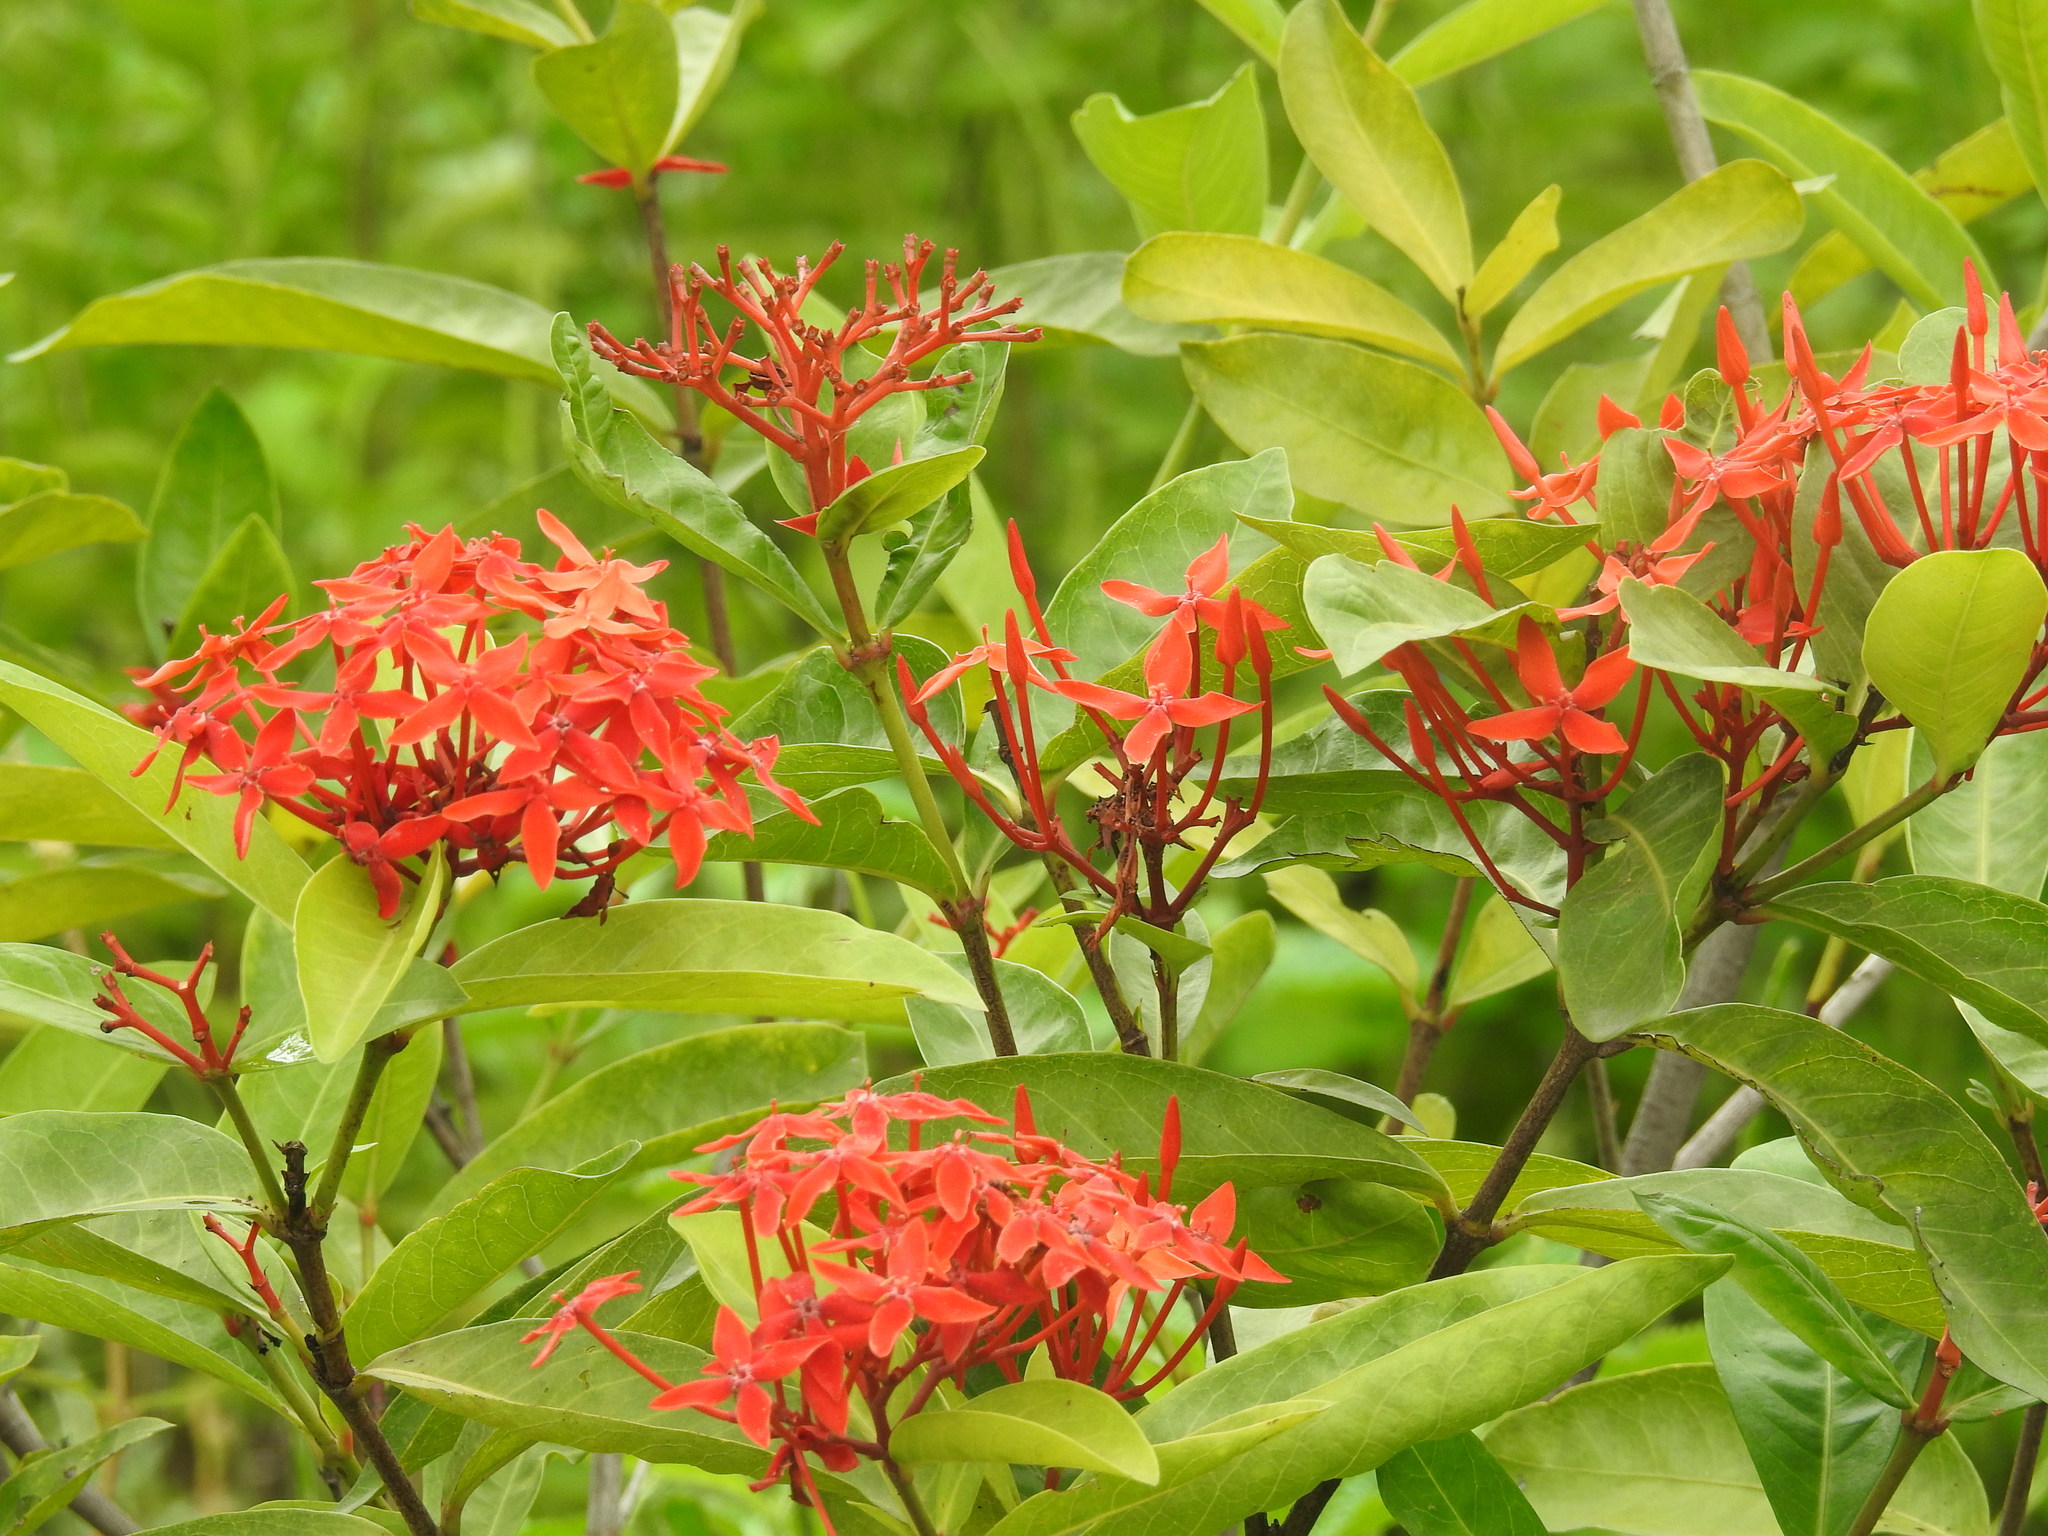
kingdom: Plantae
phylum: Tracheophyta
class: Magnoliopsida
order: Gentianales
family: Rubiaceae
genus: Ixora
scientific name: Ixora coccinea
